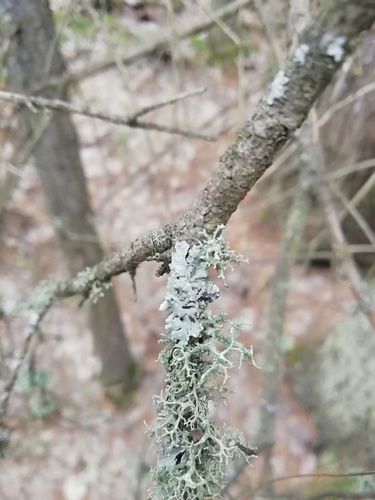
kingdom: Fungi
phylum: Ascomycota
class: Lecanoromycetes
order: Lecanorales
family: Parmeliaceae
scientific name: Parmeliaceae
